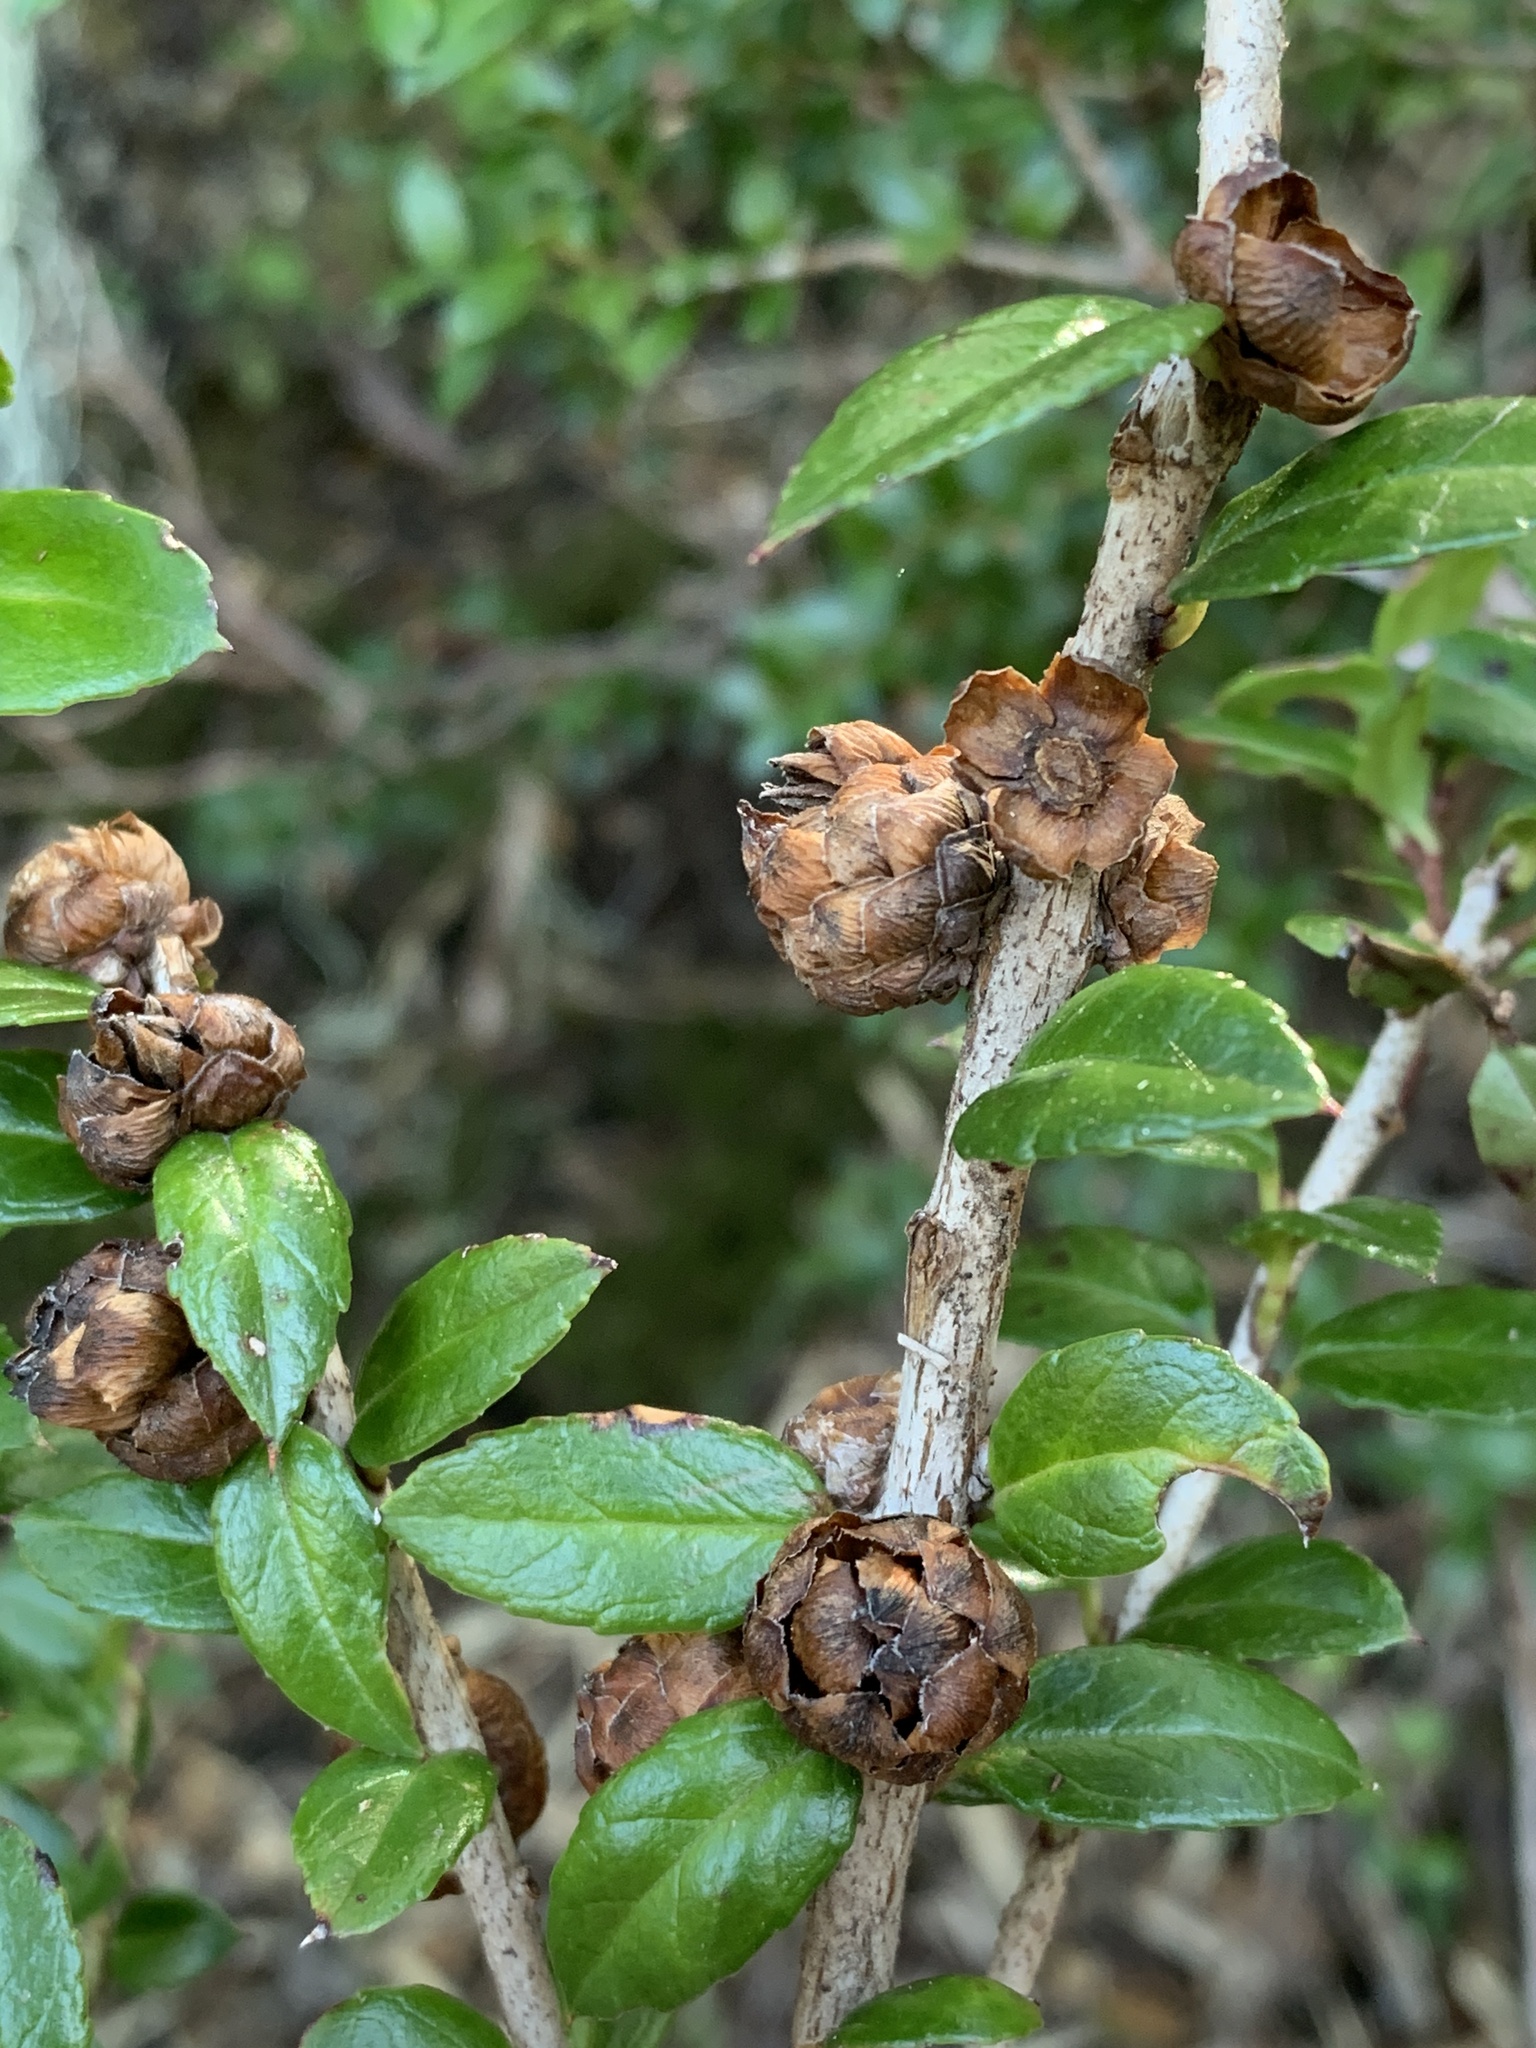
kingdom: Plantae
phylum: Tracheophyta
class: Magnoliopsida
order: Ericales
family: Ericaceae
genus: Gaultheria
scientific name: Gaultheria phillyreifolia
